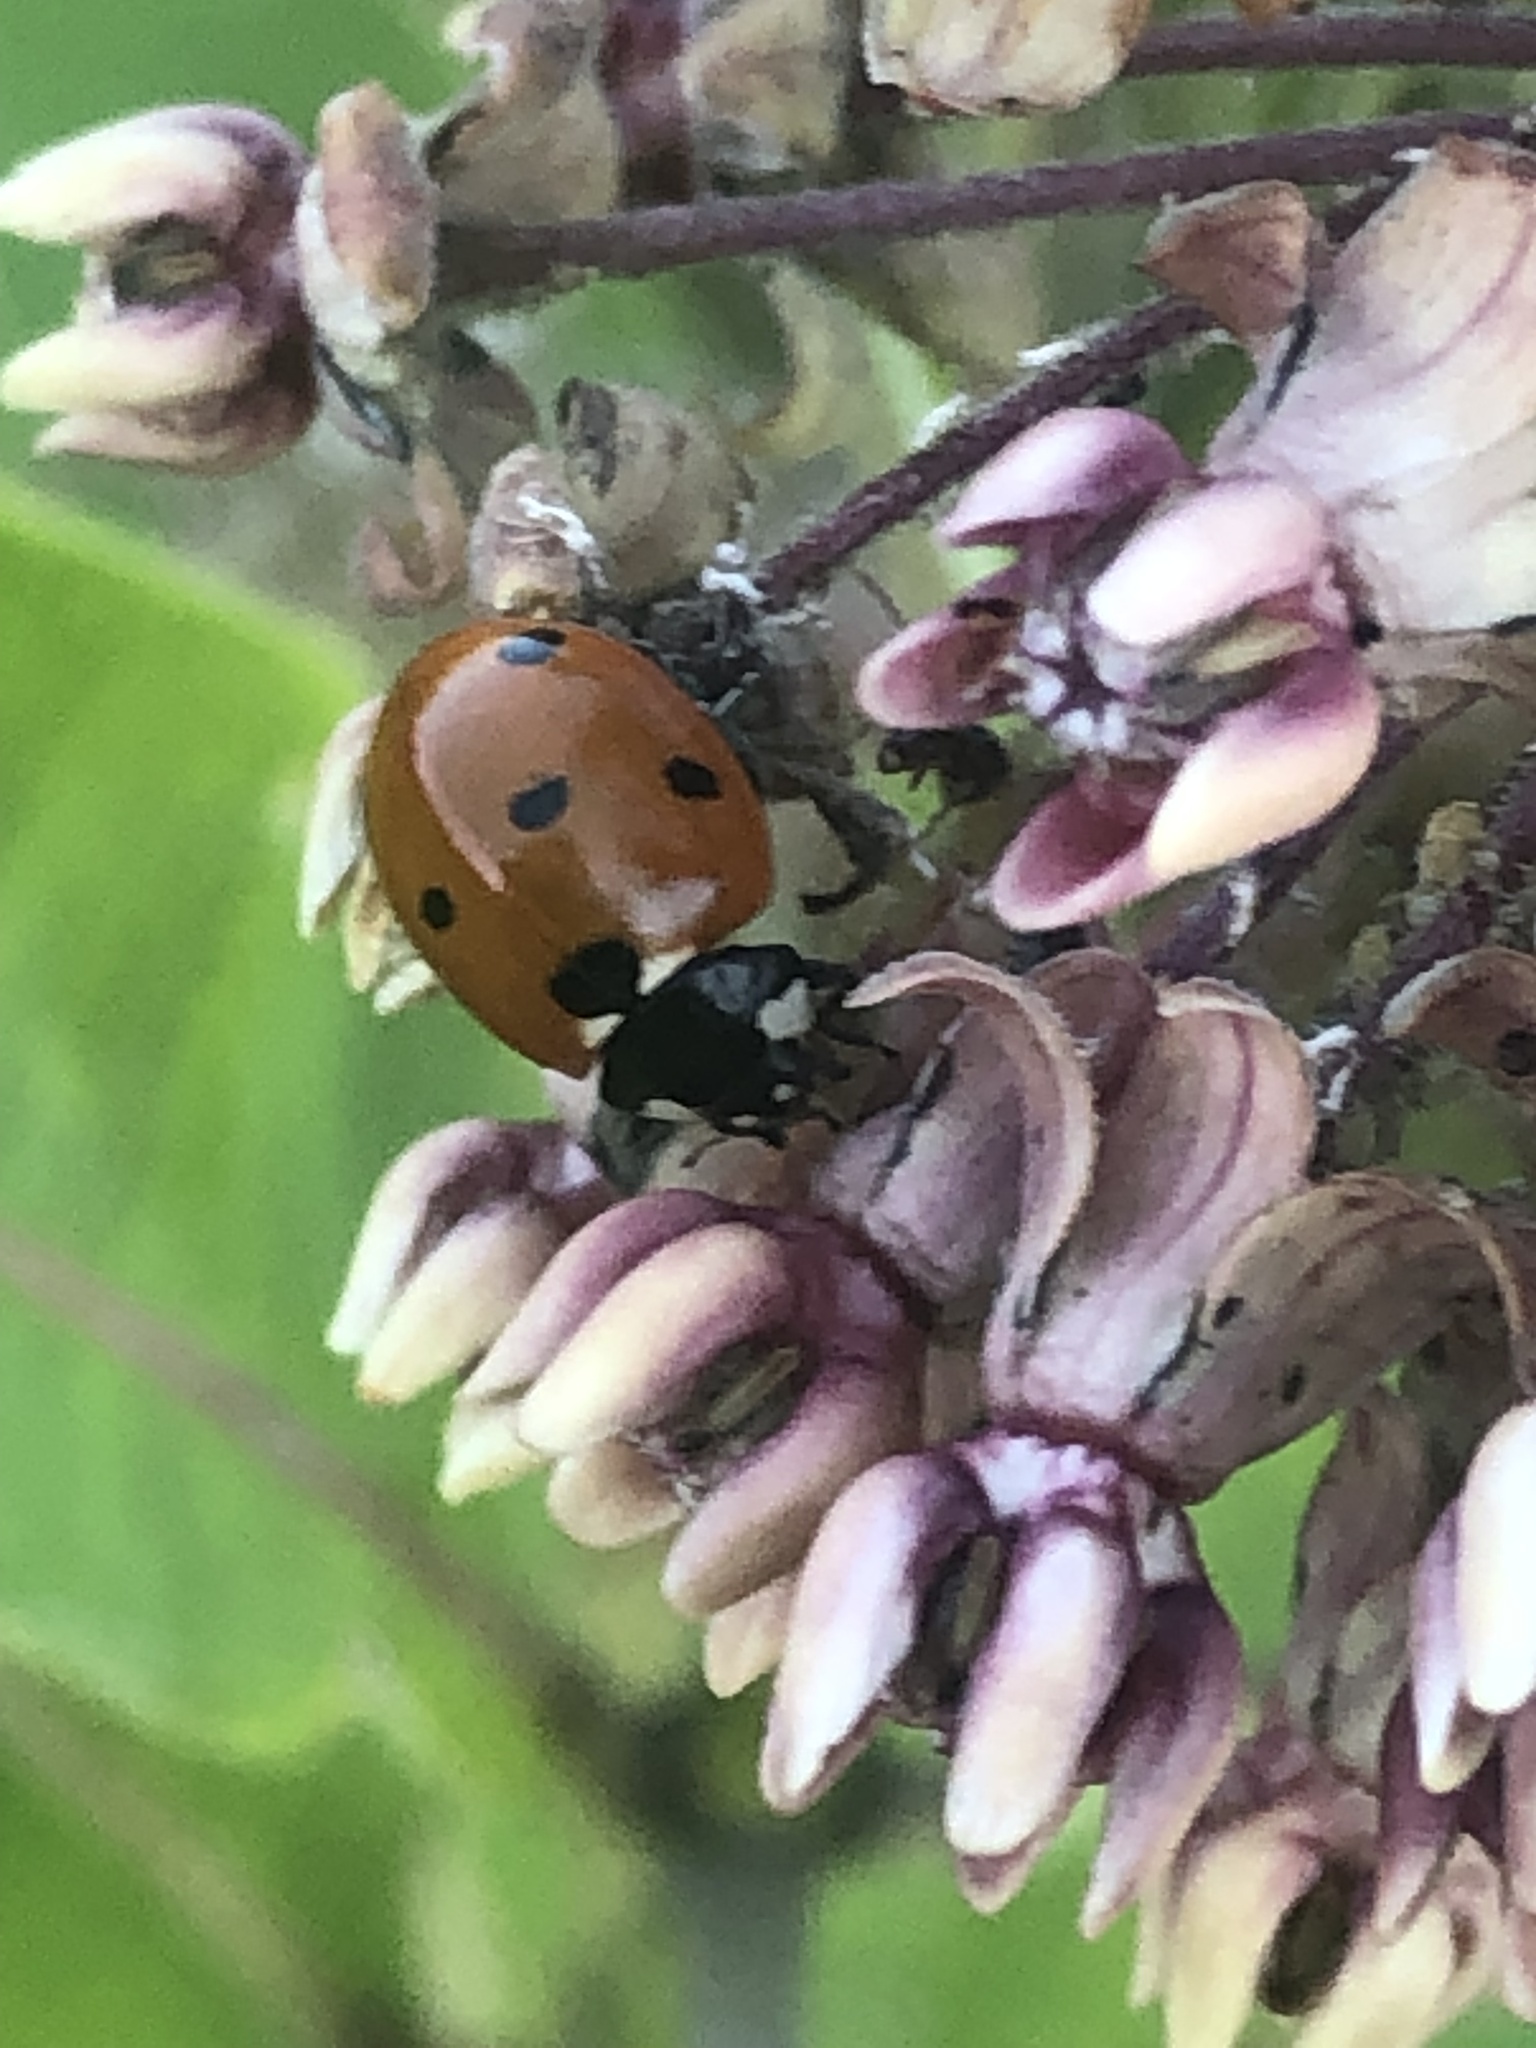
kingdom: Animalia
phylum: Arthropoda
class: Insecta
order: Coleoptera
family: Coccinellidae
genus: Coccinella
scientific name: Coccinella septempunctata
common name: Sevenspotted lady beetle
